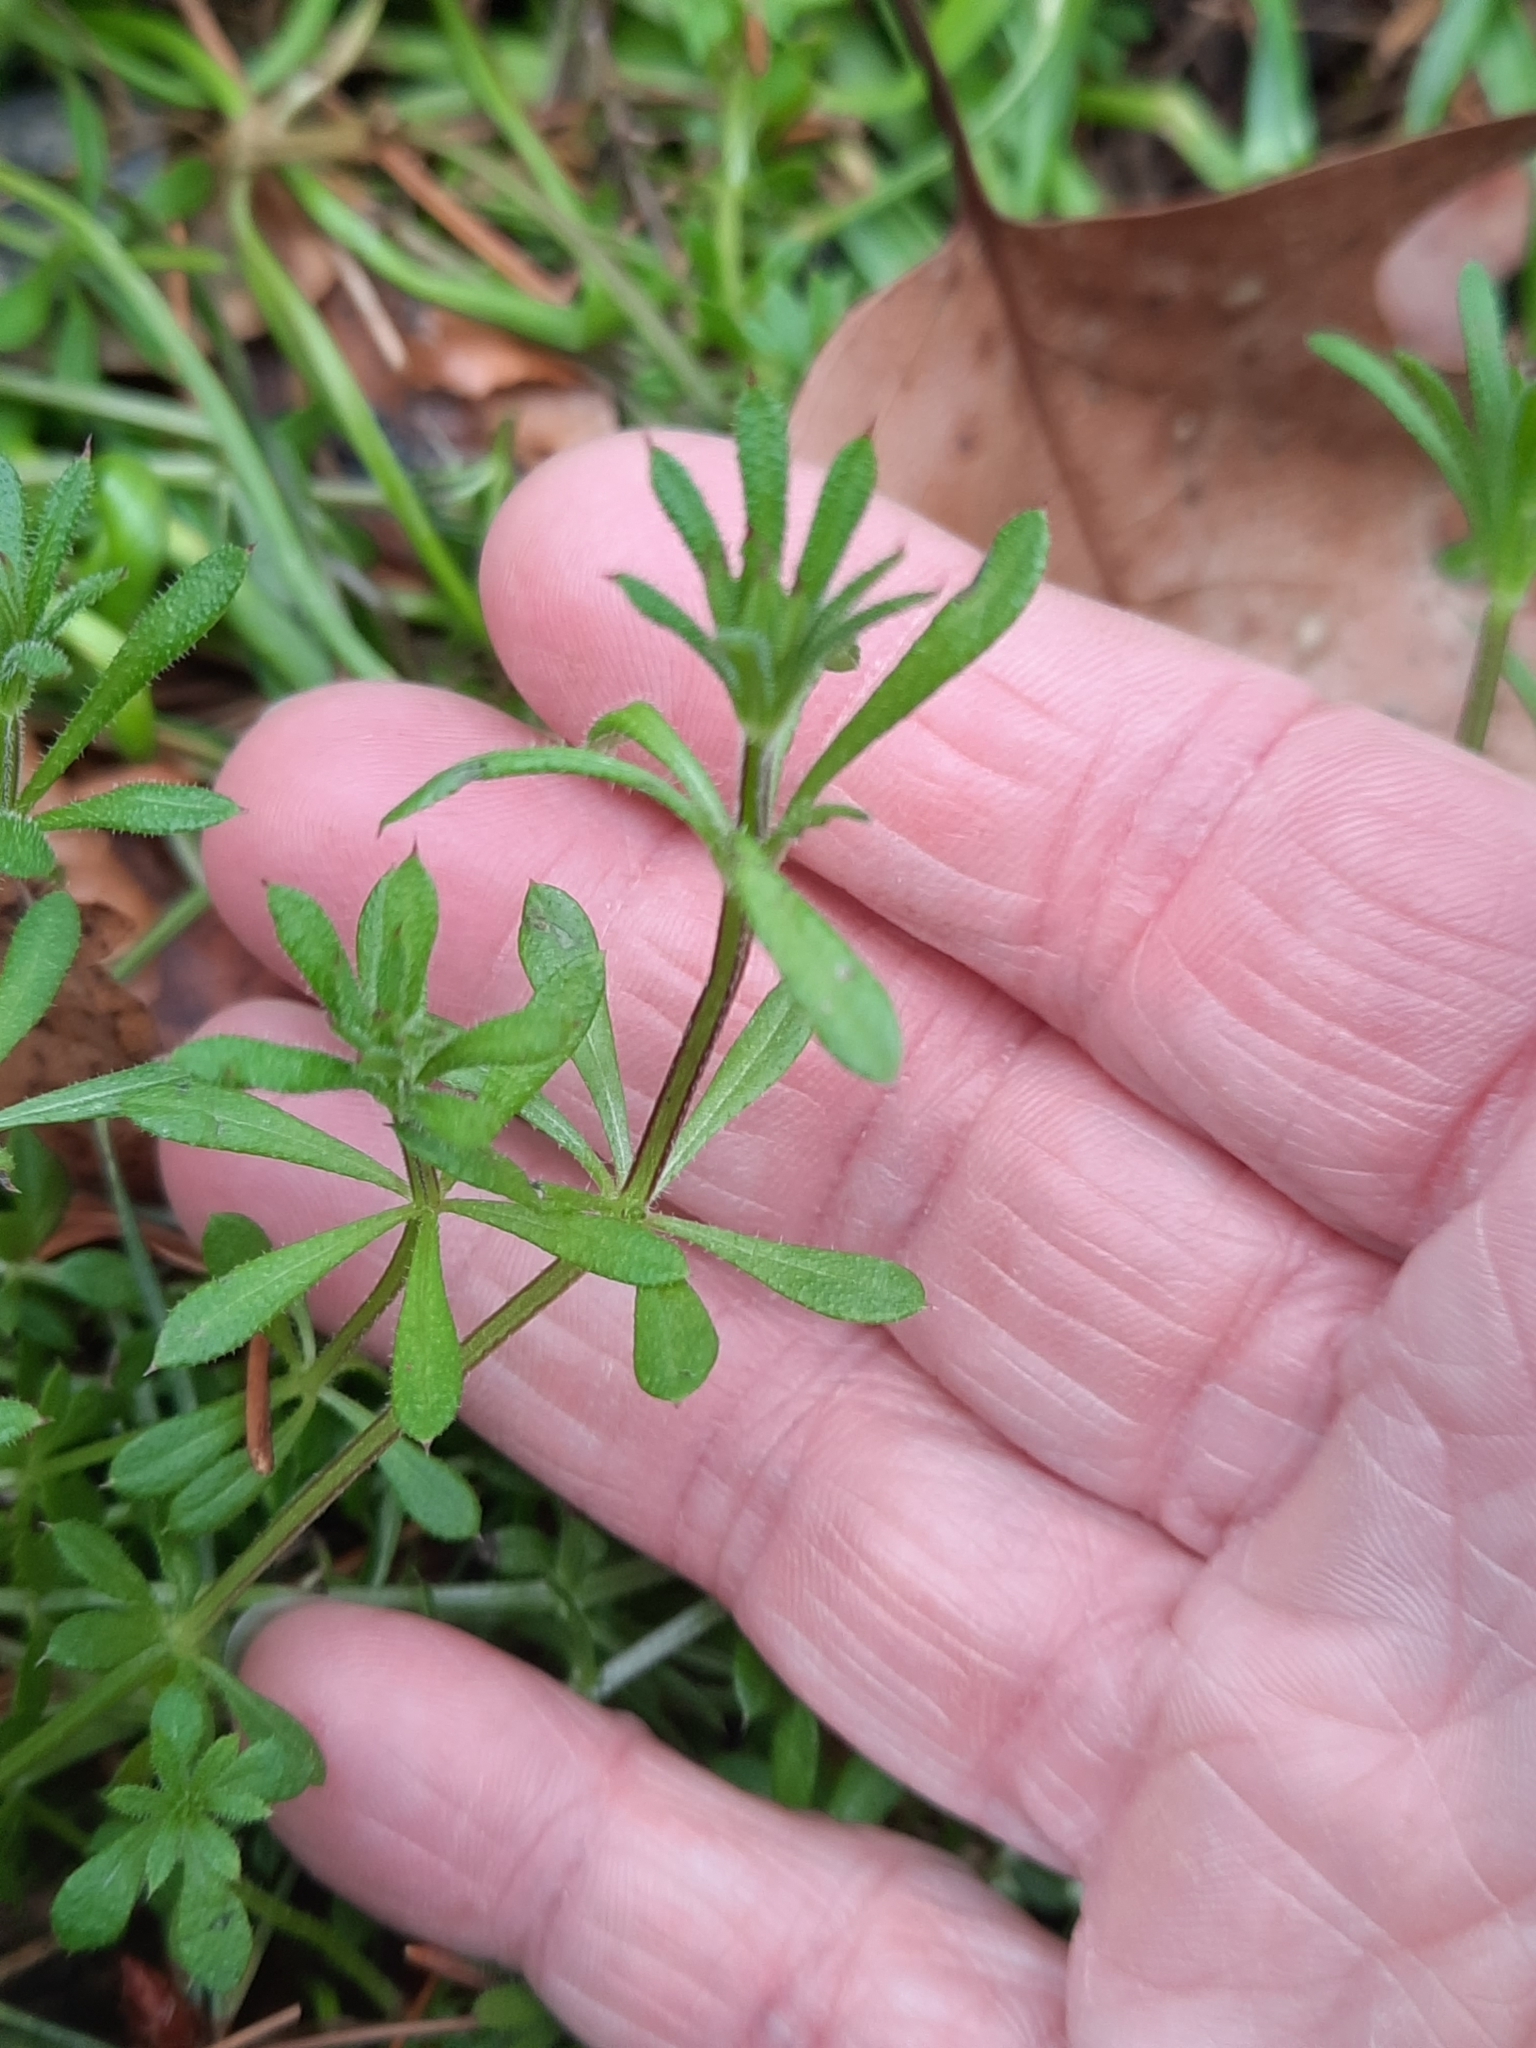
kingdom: Plantae
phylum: Tracheophyta
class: Magnoliopsida
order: Gentianales
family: Rubiaceae
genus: Galium
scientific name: Galium aparine
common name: Cleavers
